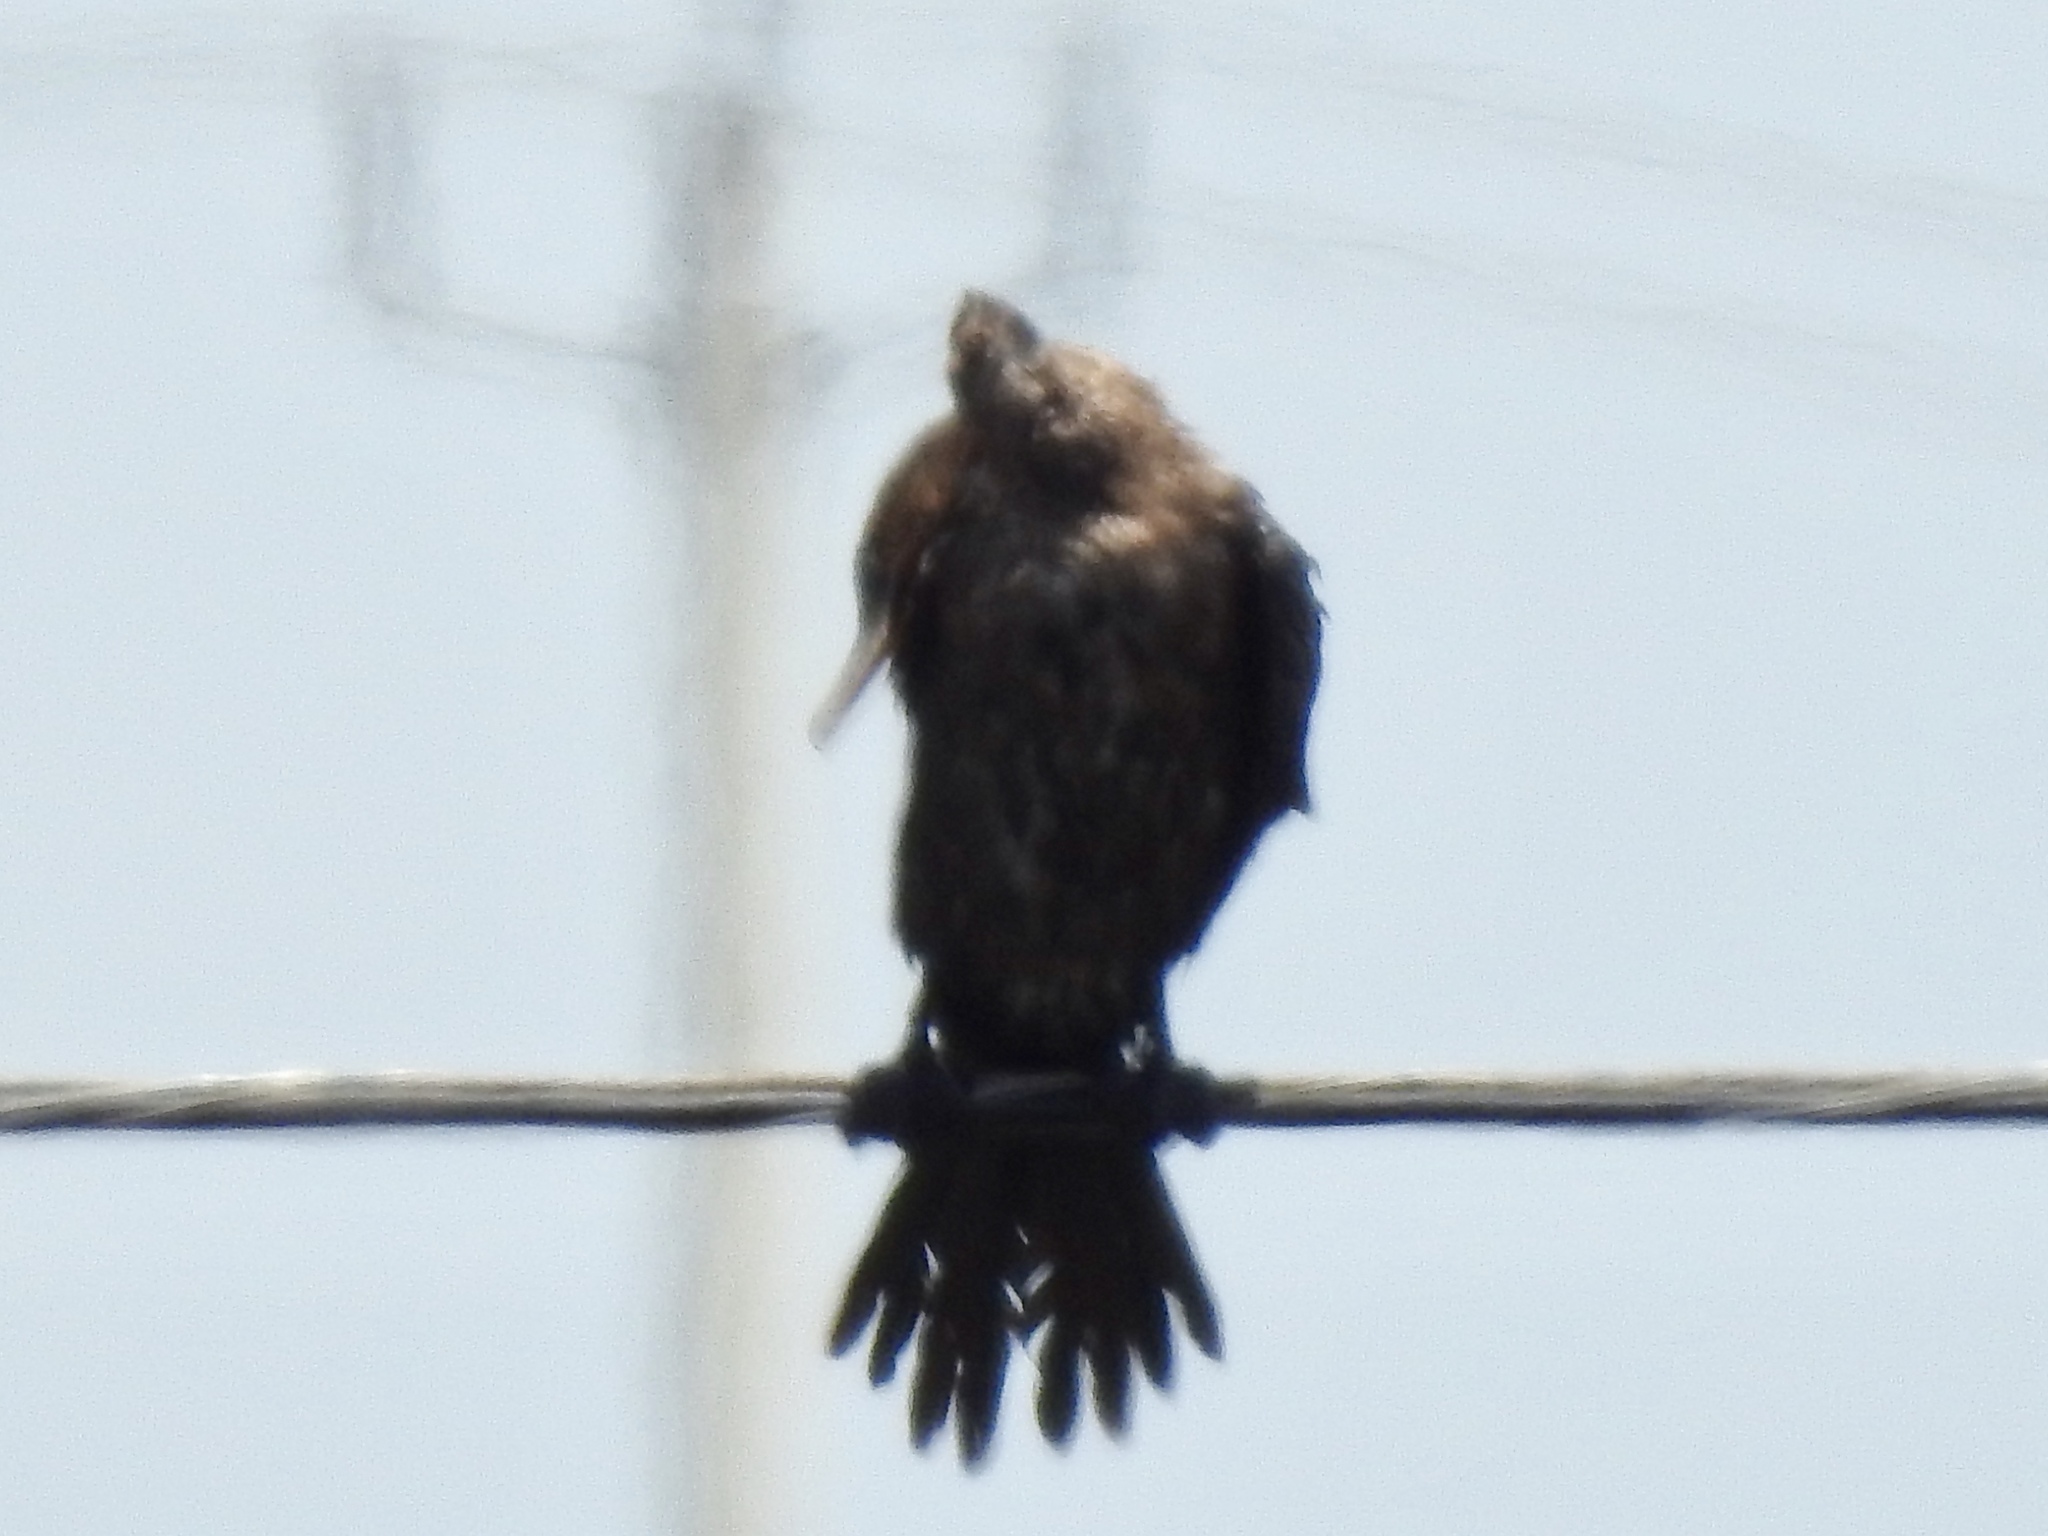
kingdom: Animalia
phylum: Chordata
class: Aves
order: Suliformes
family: Phalacrocoracidae
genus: Phalacrocorax
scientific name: Phalacrocorax brasilianus
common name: Neotropic cormorant
